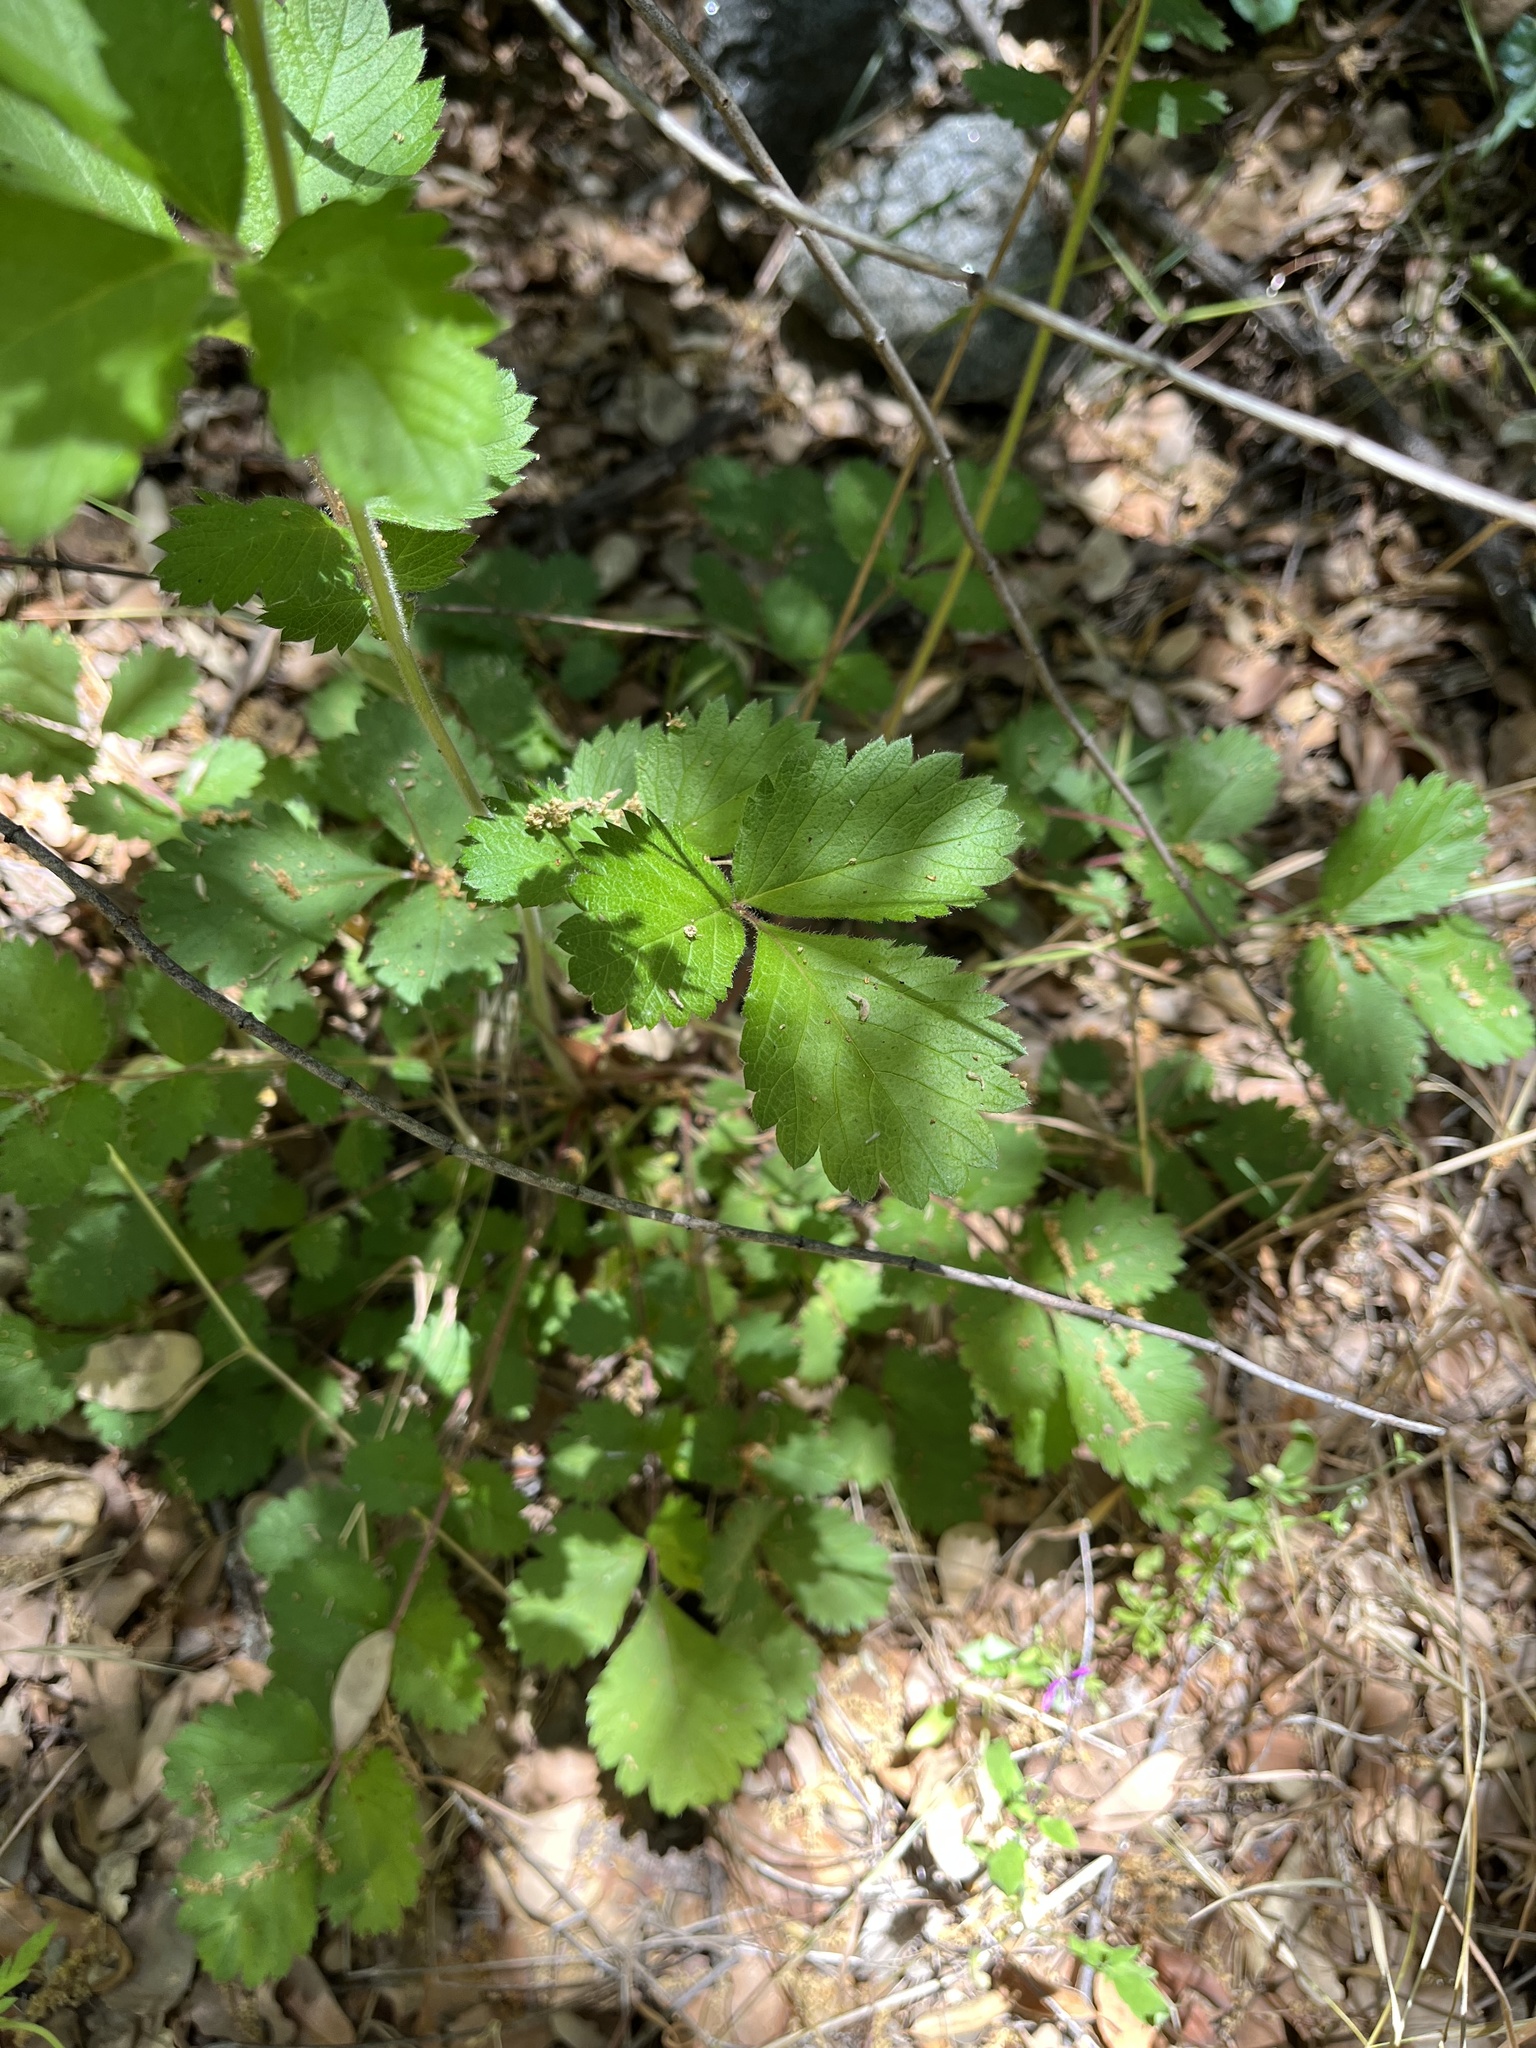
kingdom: Plantae
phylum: Tracheophyta
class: Magnoliopsida
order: Rosales
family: Rosaceae
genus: Drymocallis
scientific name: Drymocallis glandulosa
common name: Sticky cinquefoil
